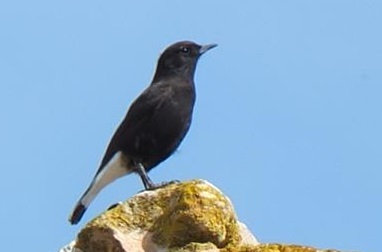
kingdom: Animalia
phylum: Chordata
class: Aves
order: Passeriformes
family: Muscicapidae
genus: Oenanthe
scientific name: Oenanthe leucura
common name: Black wheatear
